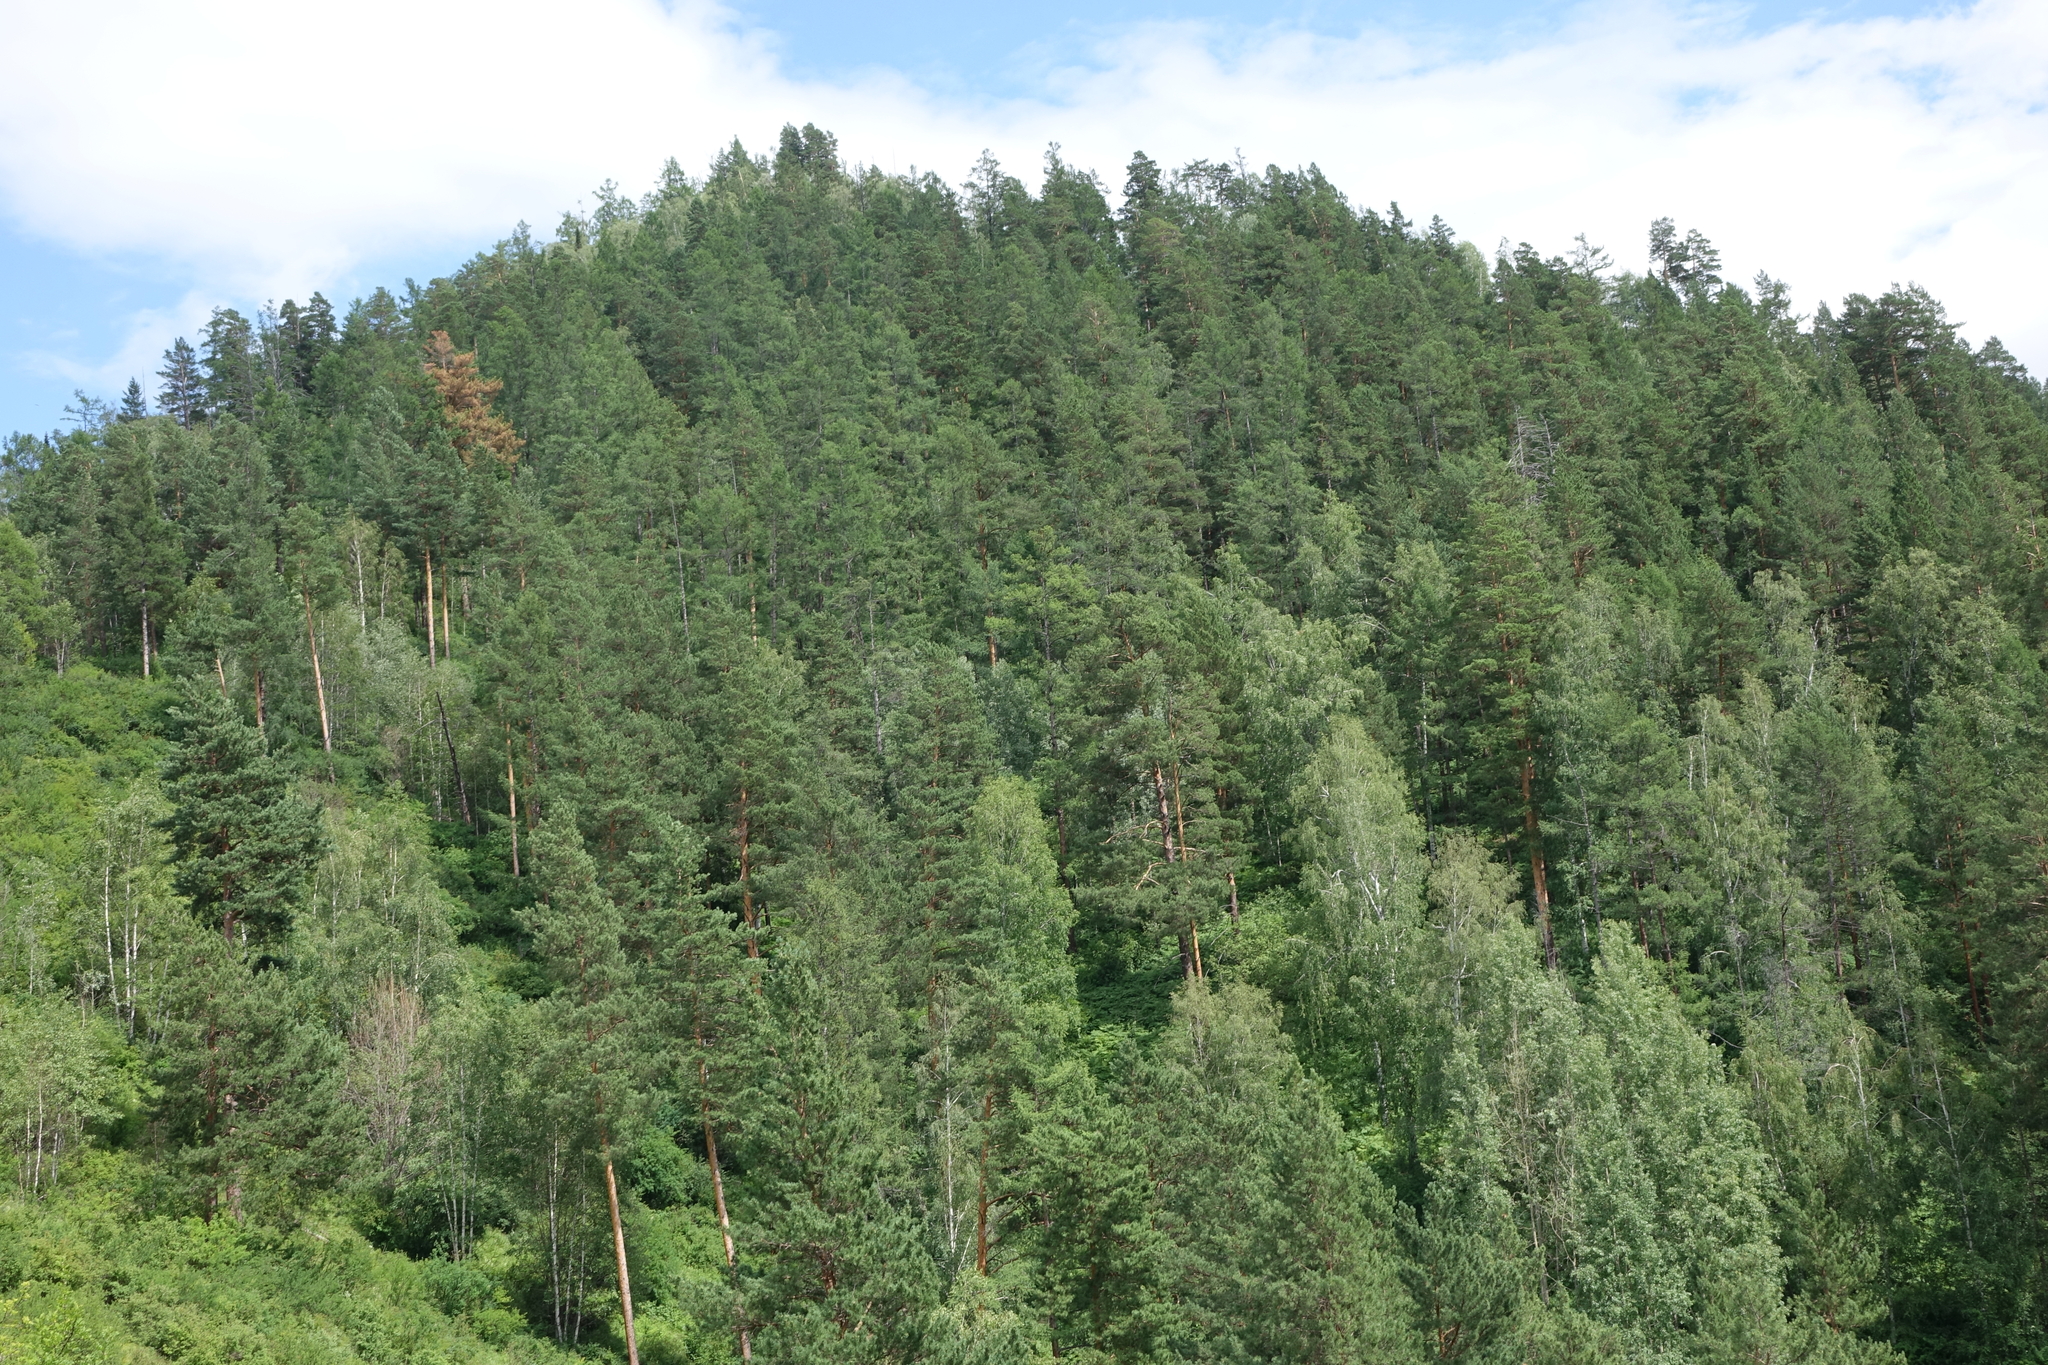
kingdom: Plantae
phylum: Tracheophyta
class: Pinopsida
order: Pinales
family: Pinaceae
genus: Pinus
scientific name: Pinus sylvestris
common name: Scots pine
